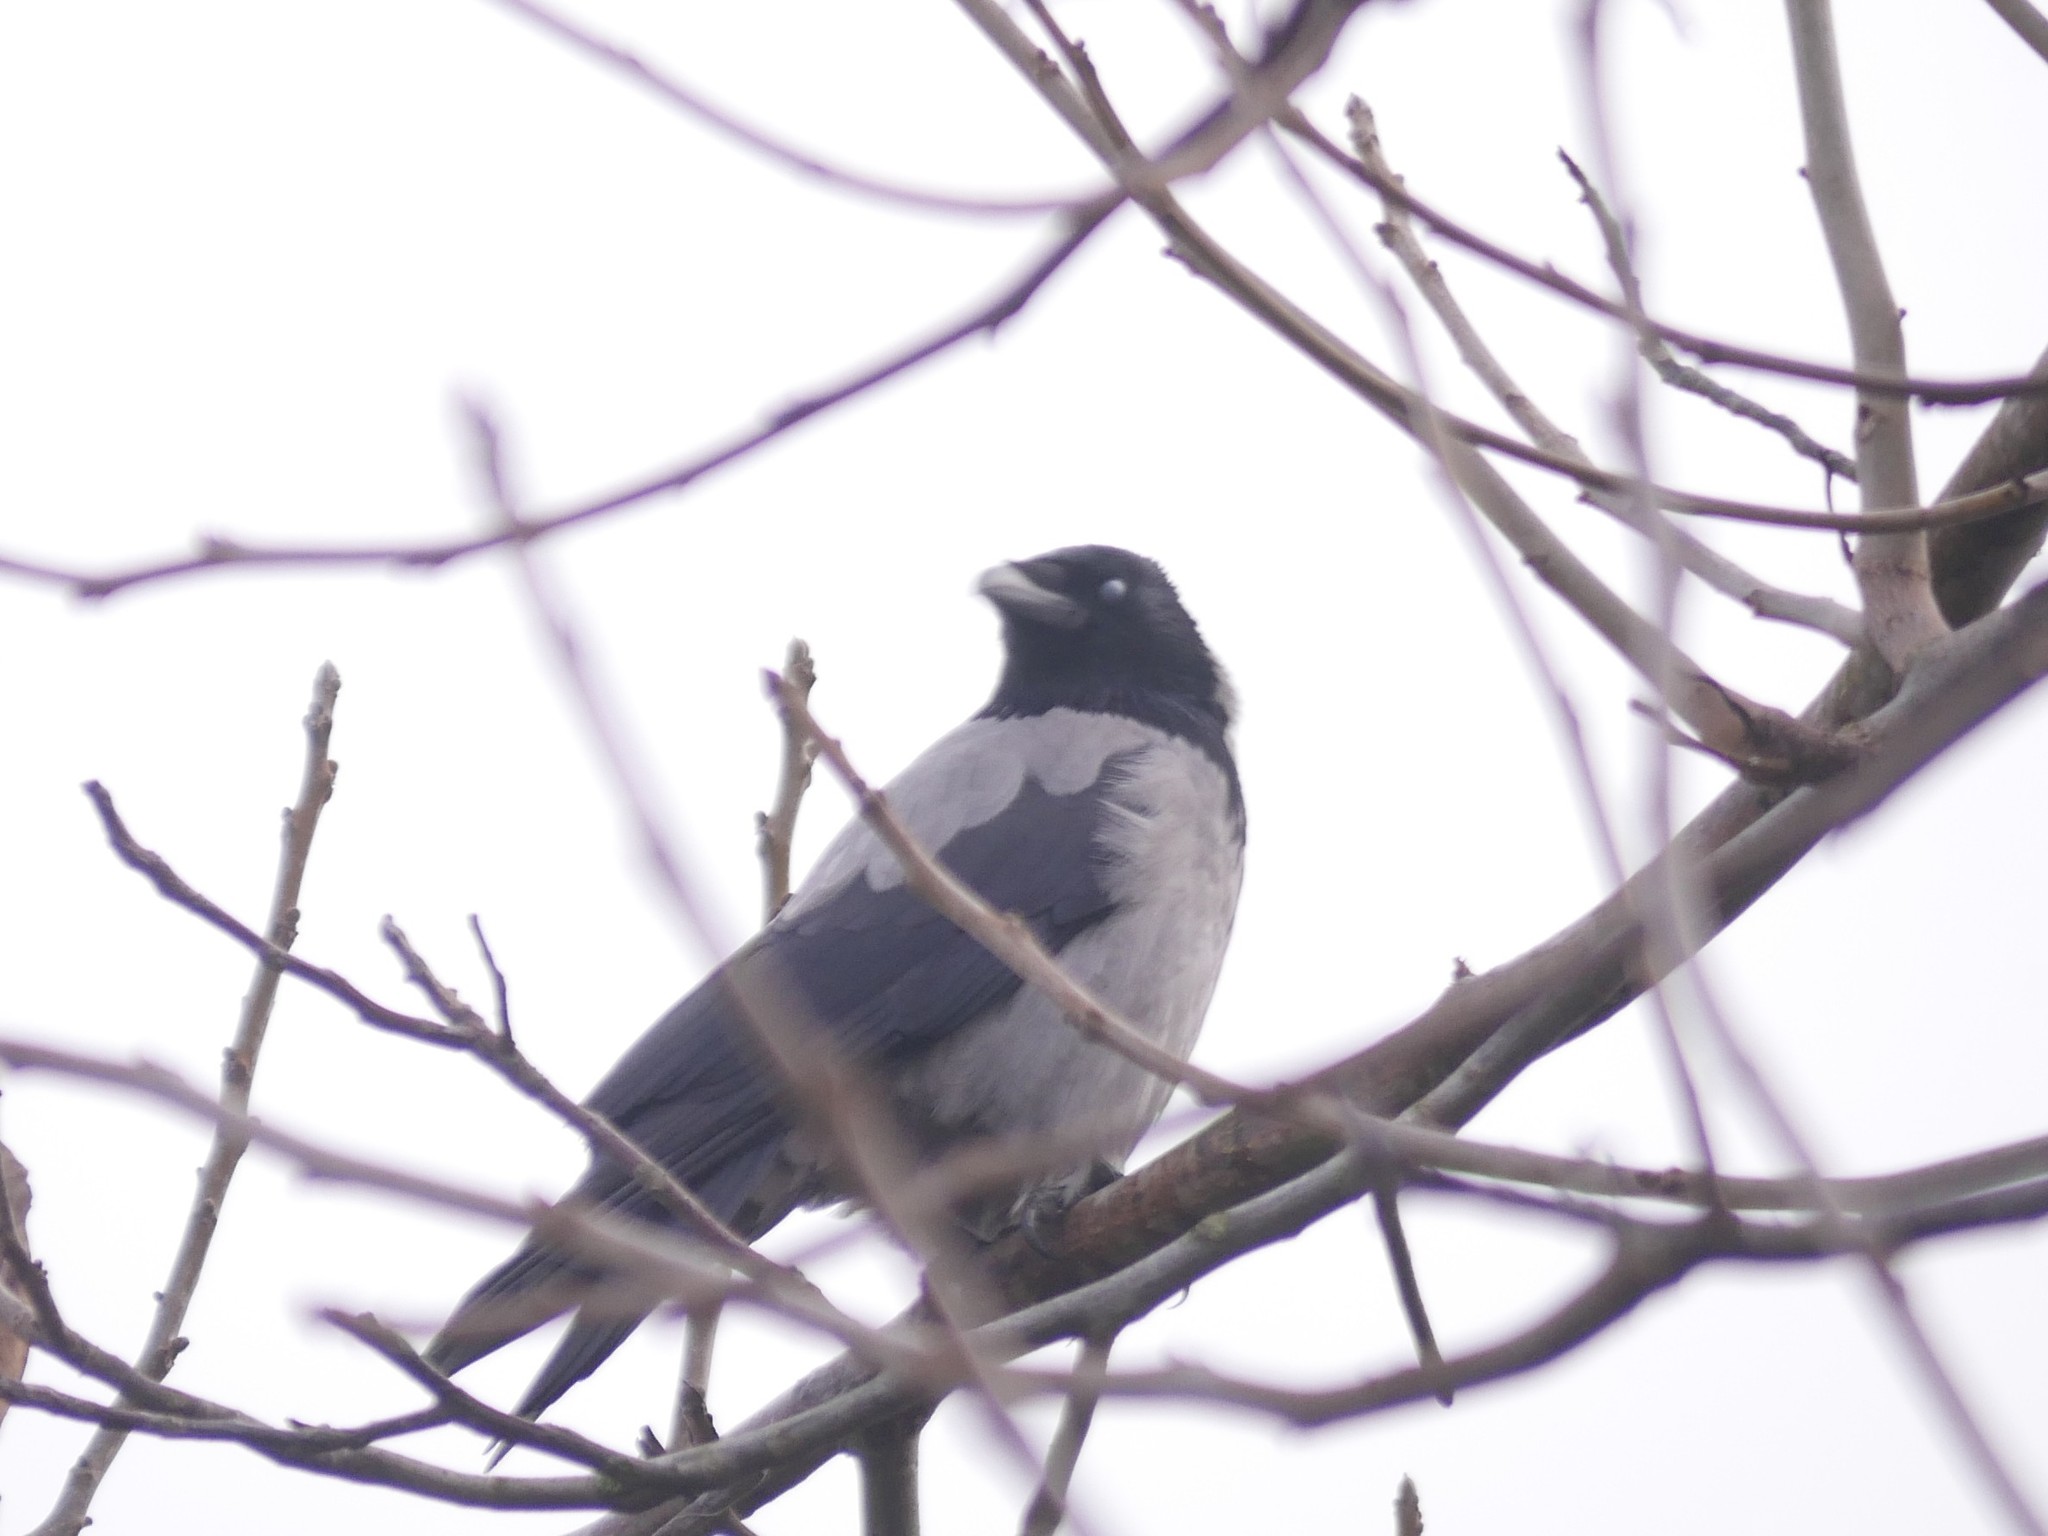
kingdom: Animalia
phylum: Chordata
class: Aves
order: Passeriformes
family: Corvidae
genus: Corvus
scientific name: Corvus cornix
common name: Hooded crow
